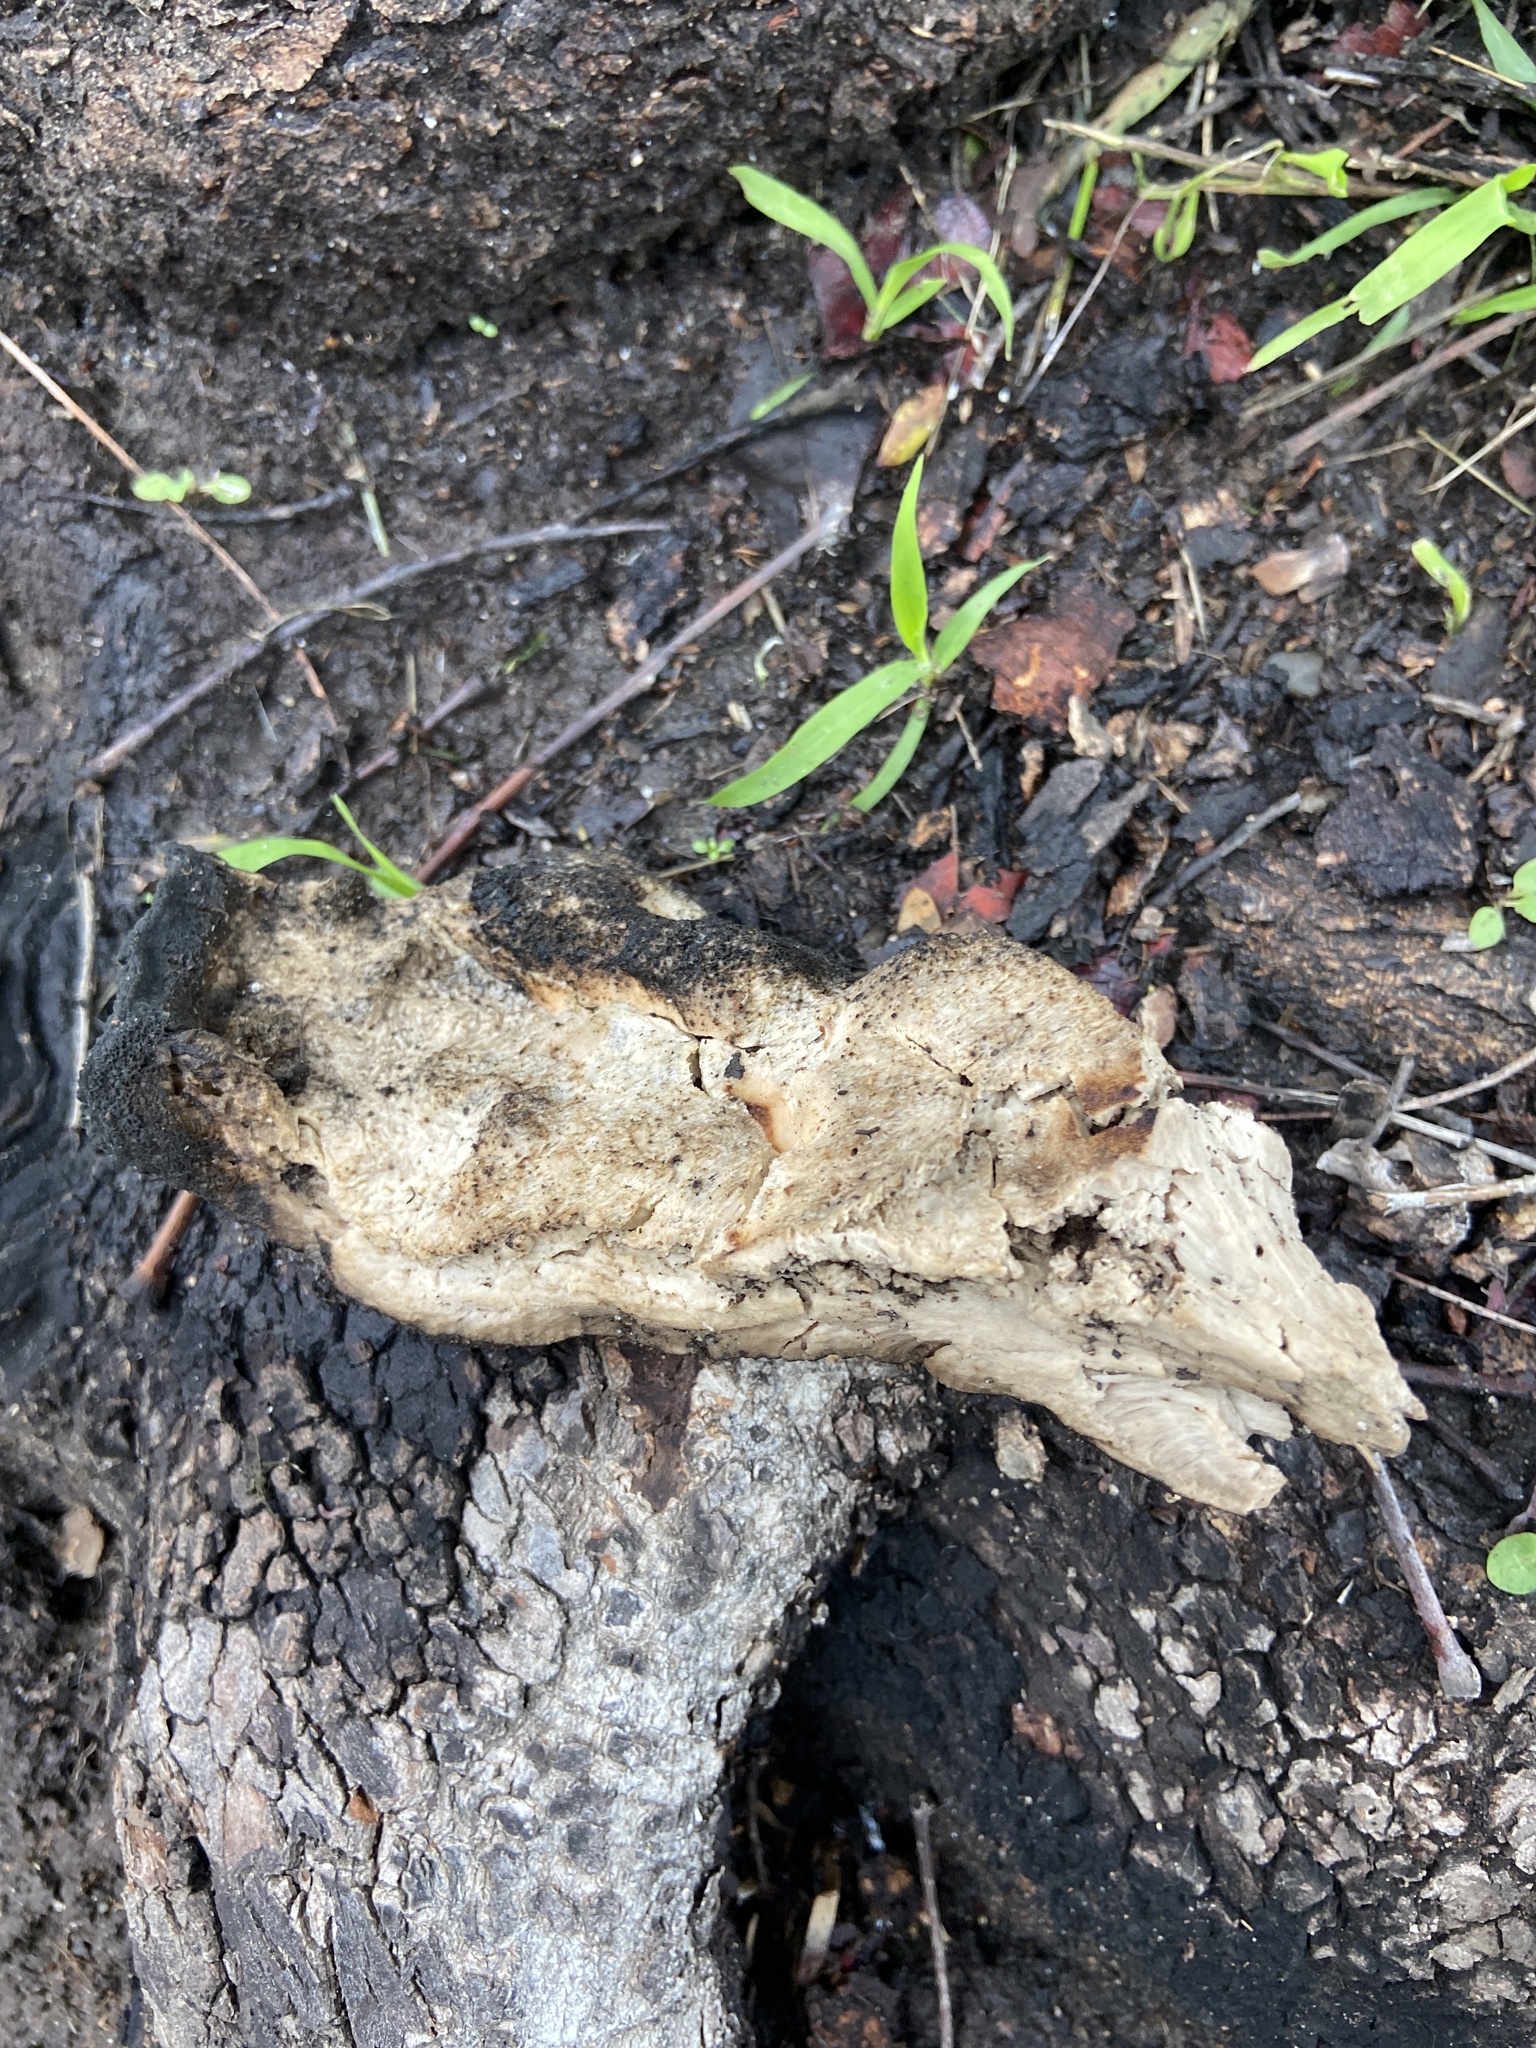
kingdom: Fungi
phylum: Basidiomycota
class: Agaricomycetes
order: Polyporales
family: Laetiporaceae
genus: Laetiporus
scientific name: Laetiporus gilbertsonii
